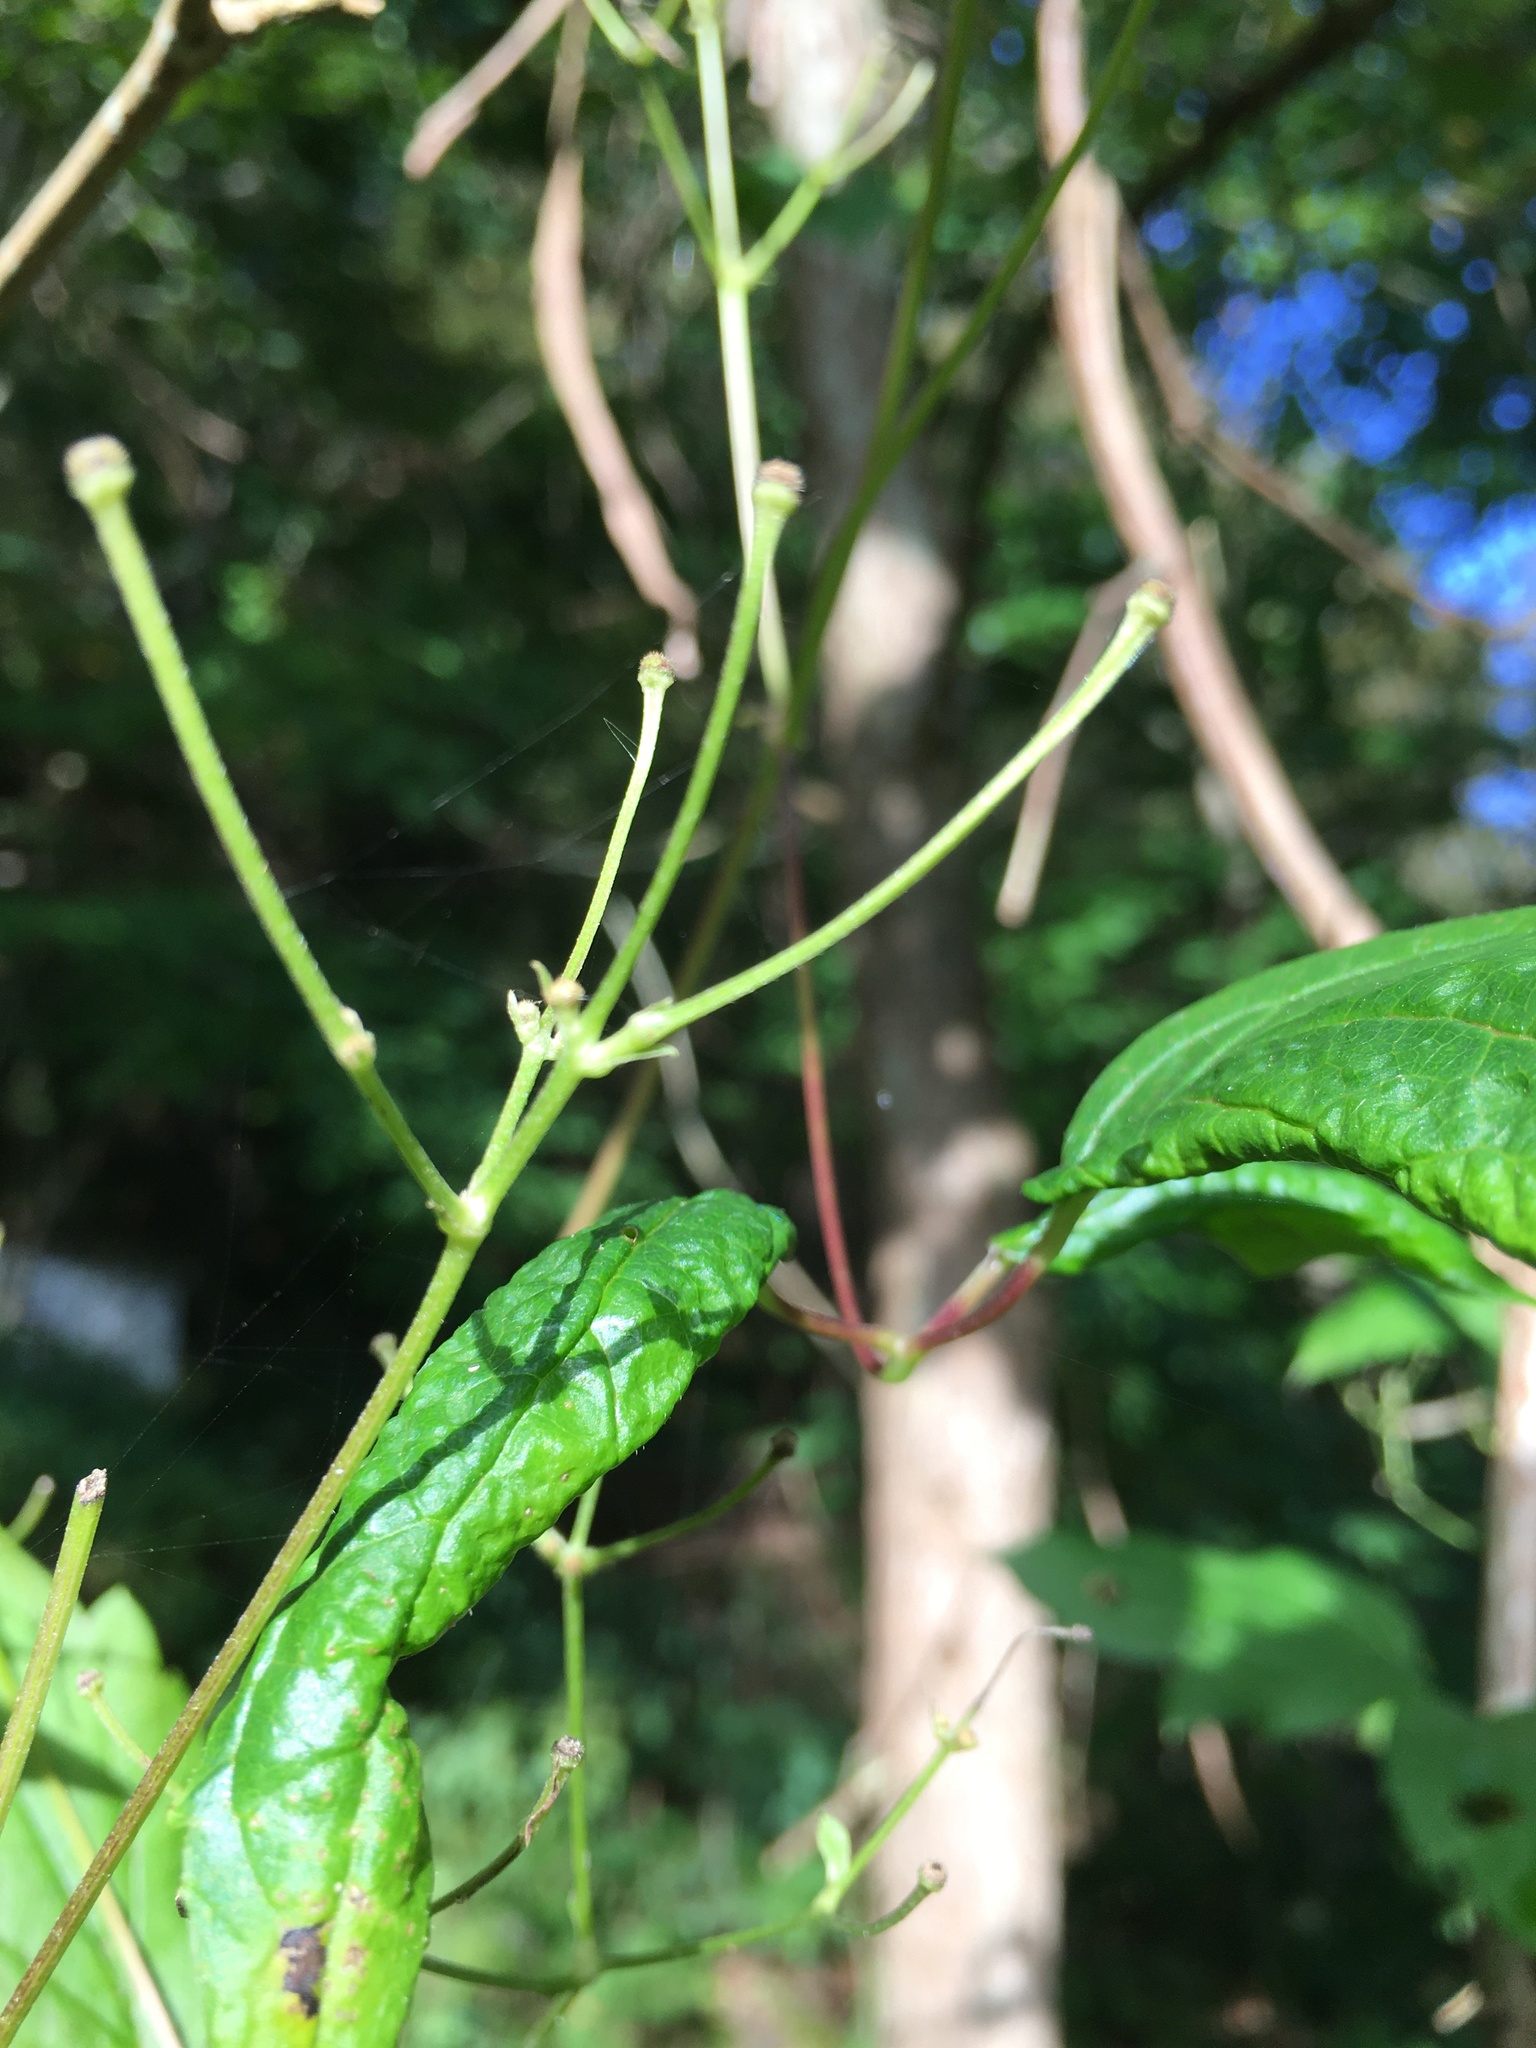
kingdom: Plantae
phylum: Tracheophyta
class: Magnoliopsida
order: Ranunculales
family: Ranunculaceae
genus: Clematis
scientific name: Clematis virginiana
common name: Virgin's-bower
